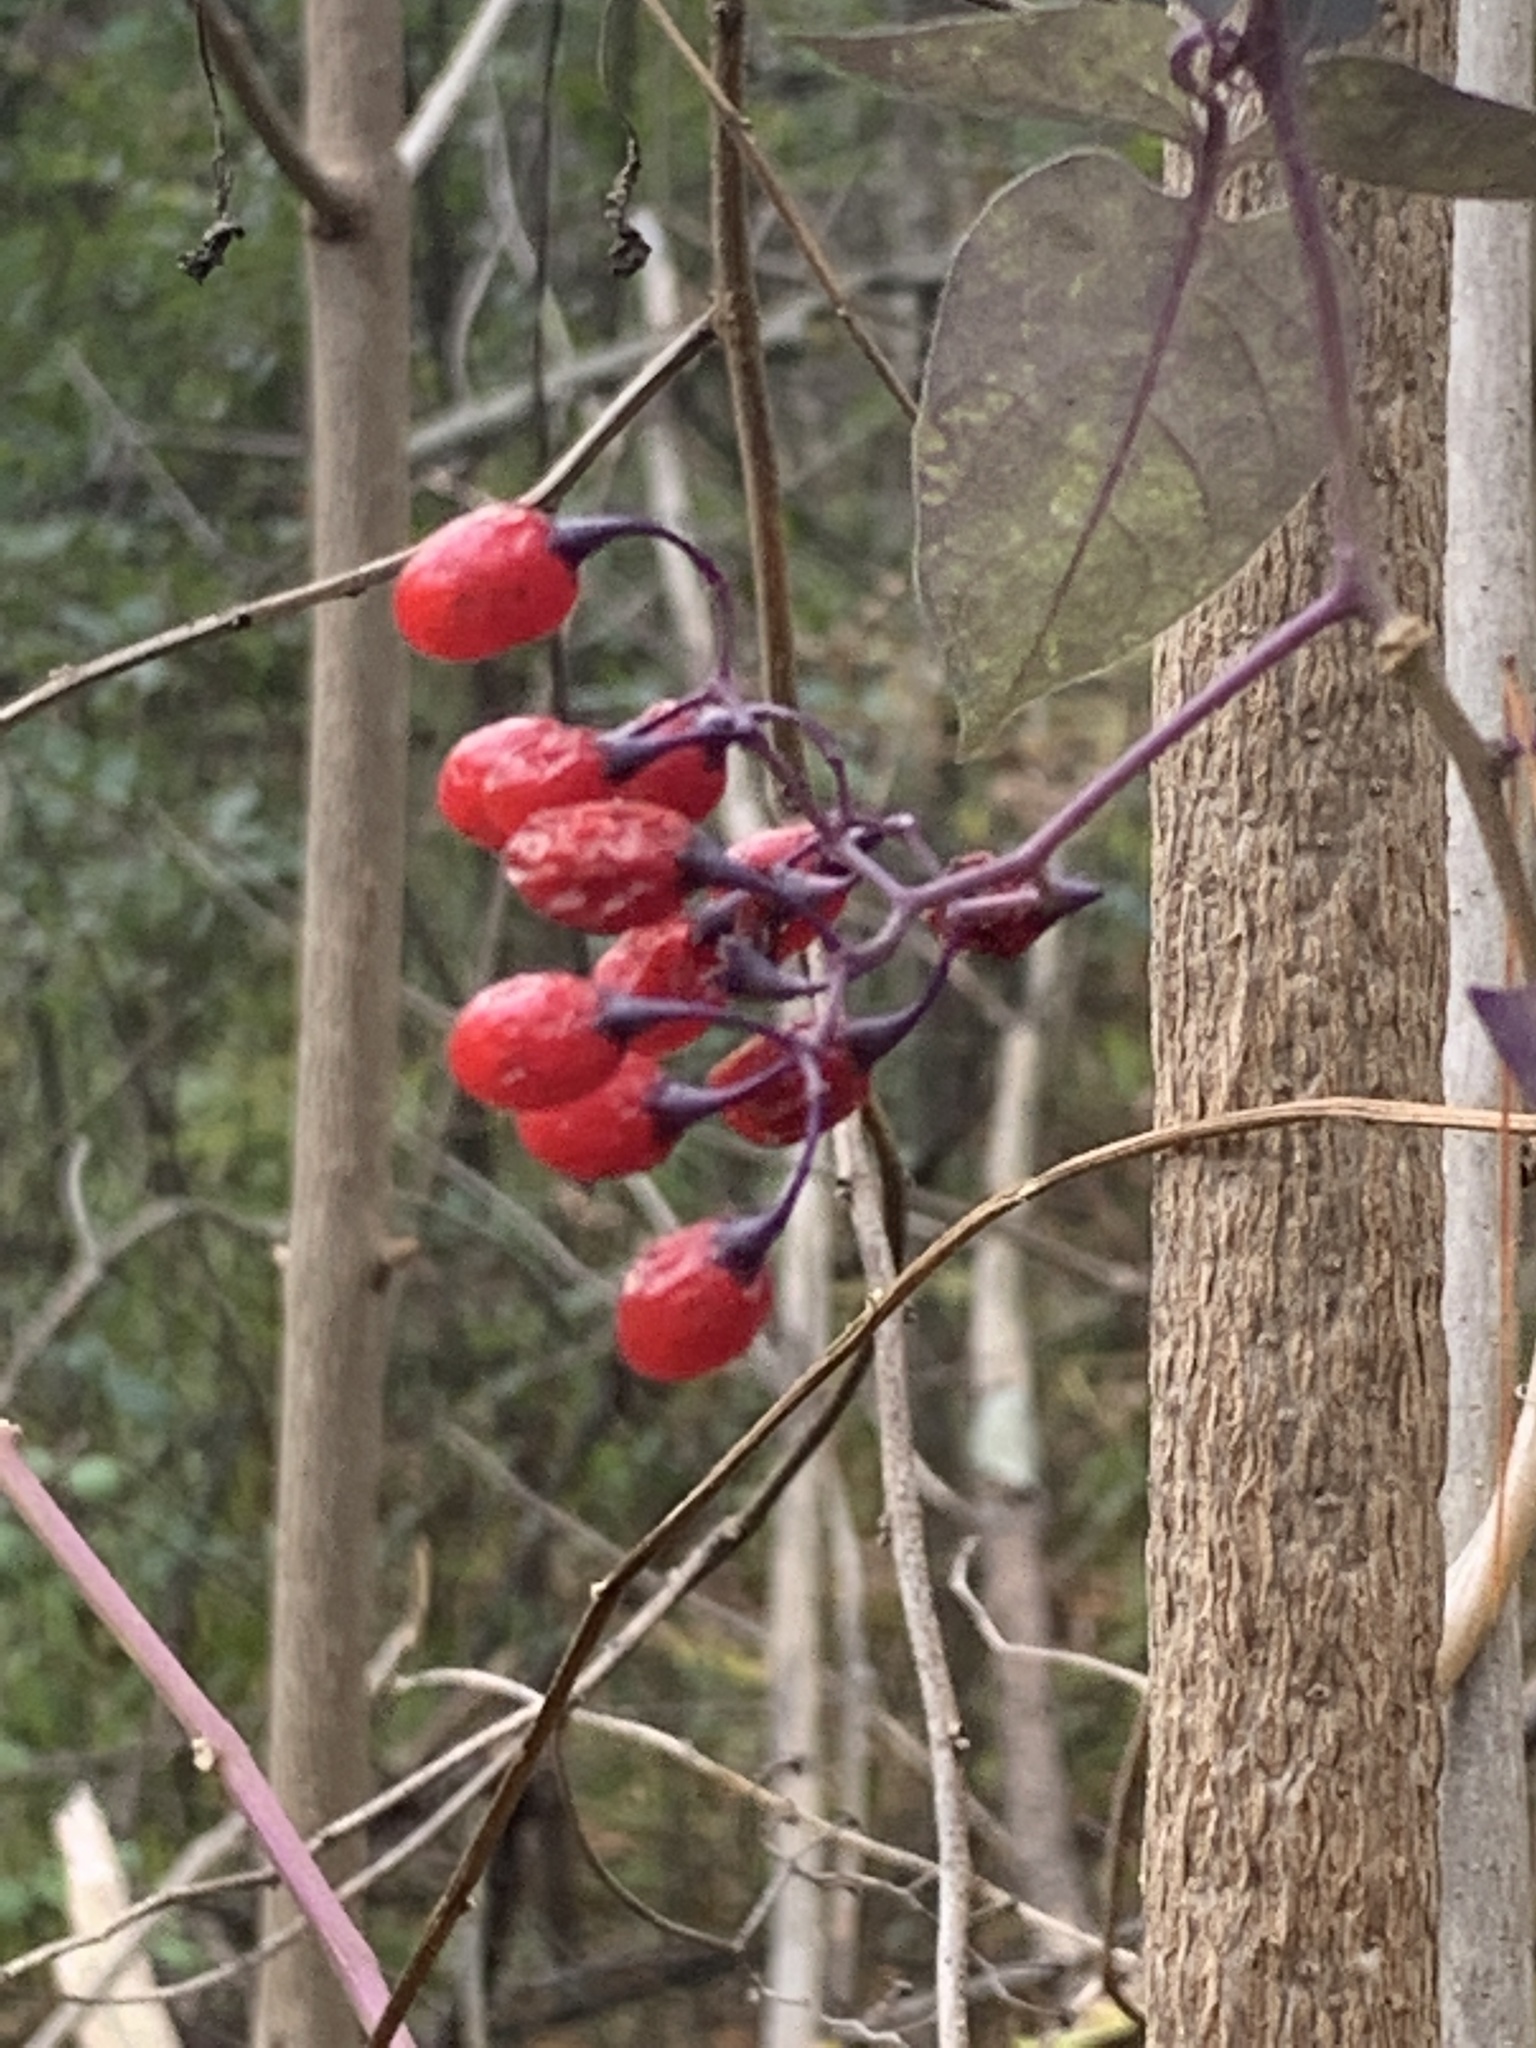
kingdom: Plantae
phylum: Tracheophyta
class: Magnoliopsida
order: Solanales
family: Solanaceae
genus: Solanum
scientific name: Solanum dulcamara
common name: Climbing nightshade
